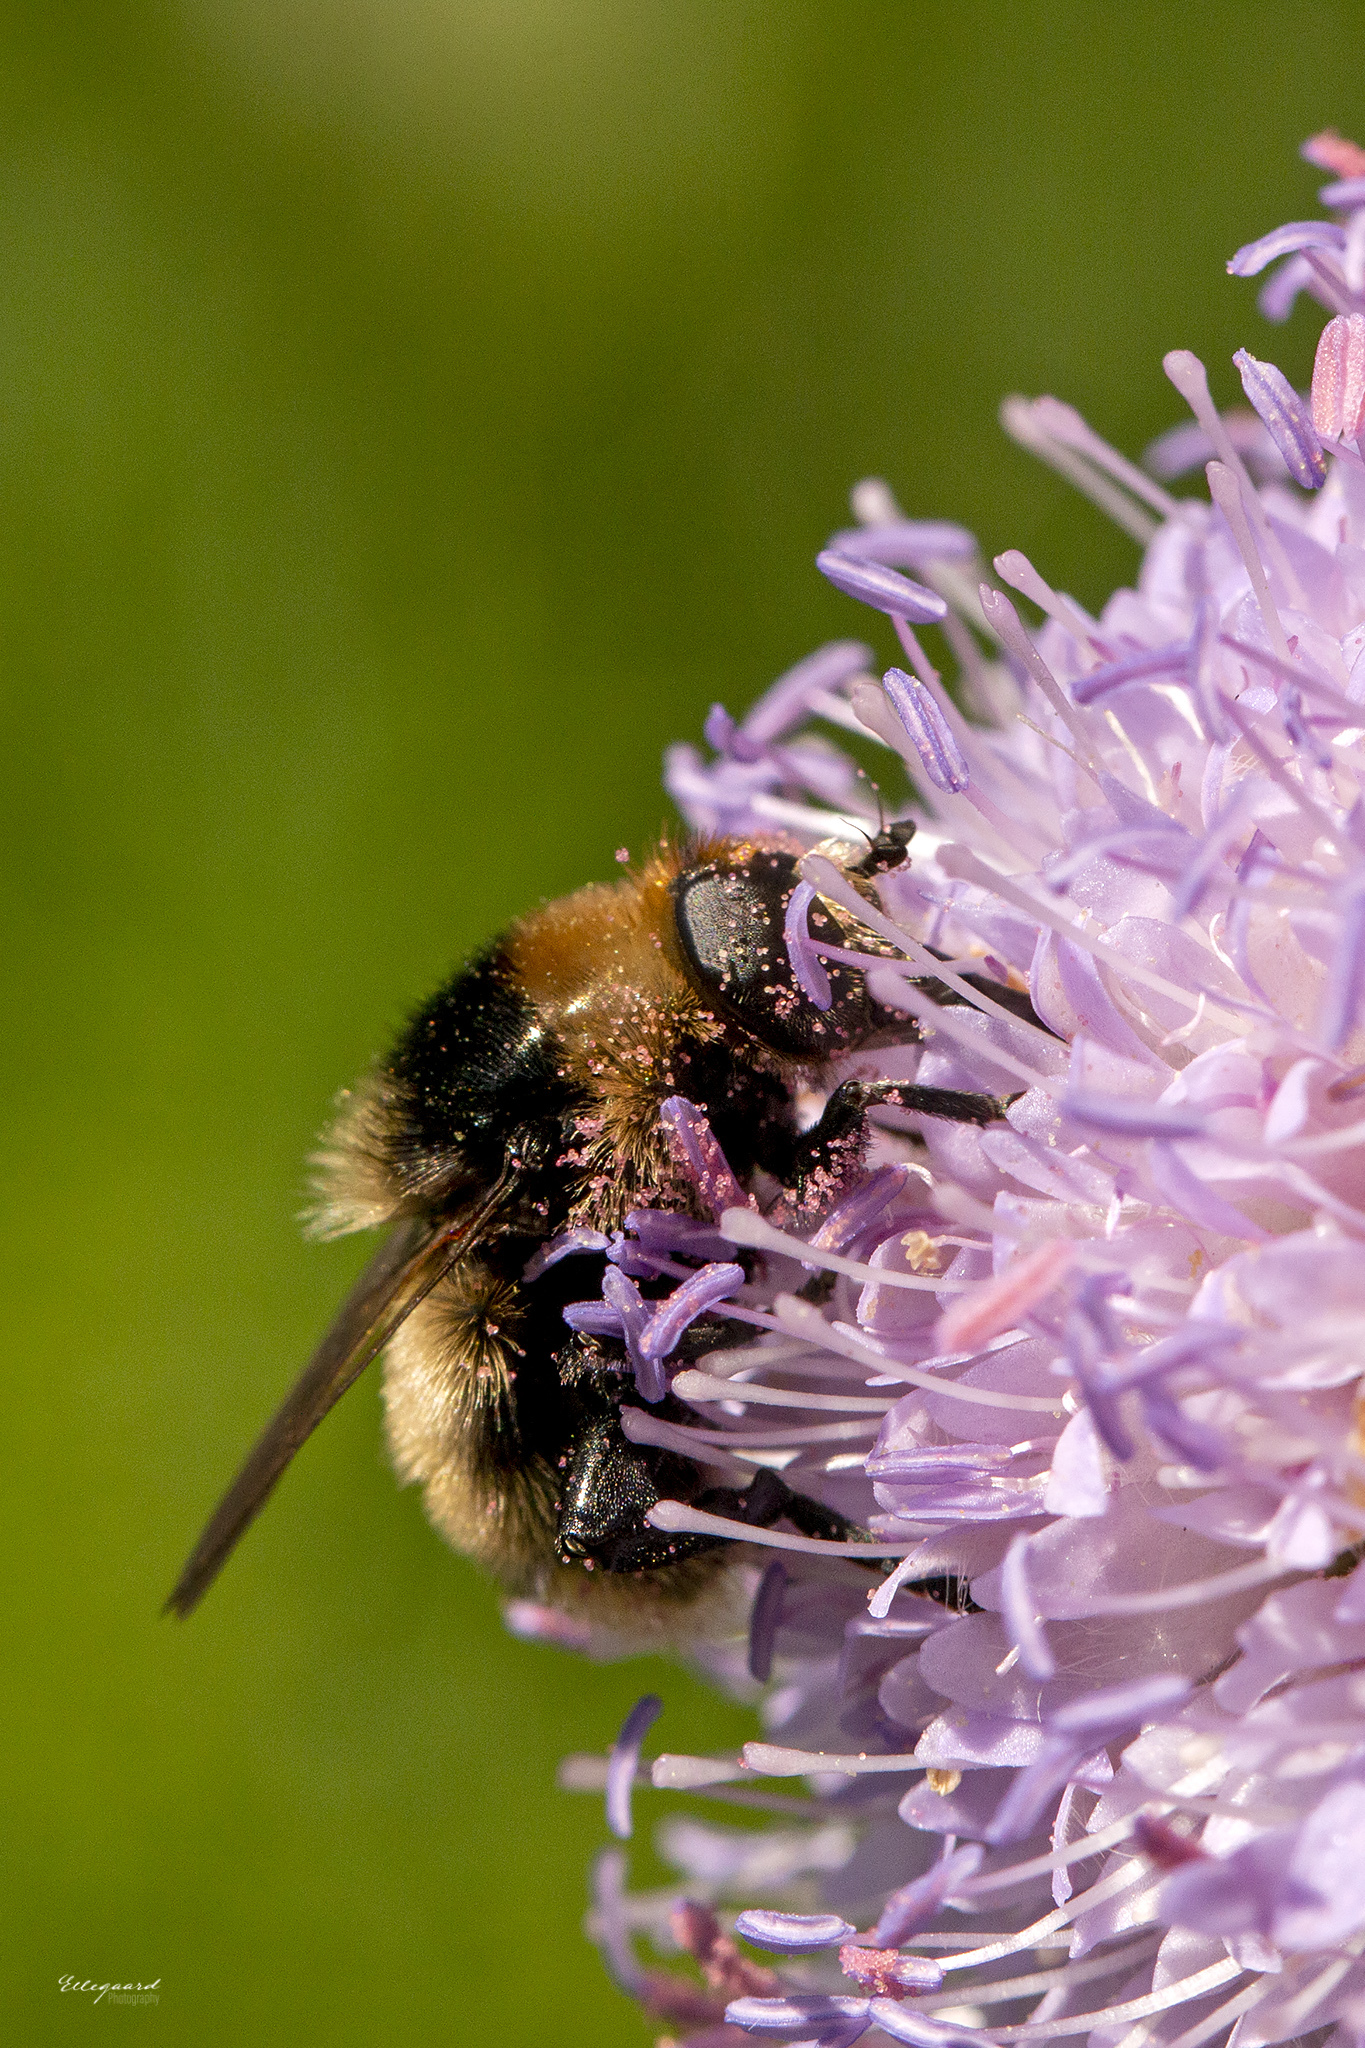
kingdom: Animalia
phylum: Arthropoda
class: Insecta
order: Diptera
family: Syrphidae
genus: Merodon
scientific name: Merodon equestris
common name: Greater bulb-fly
